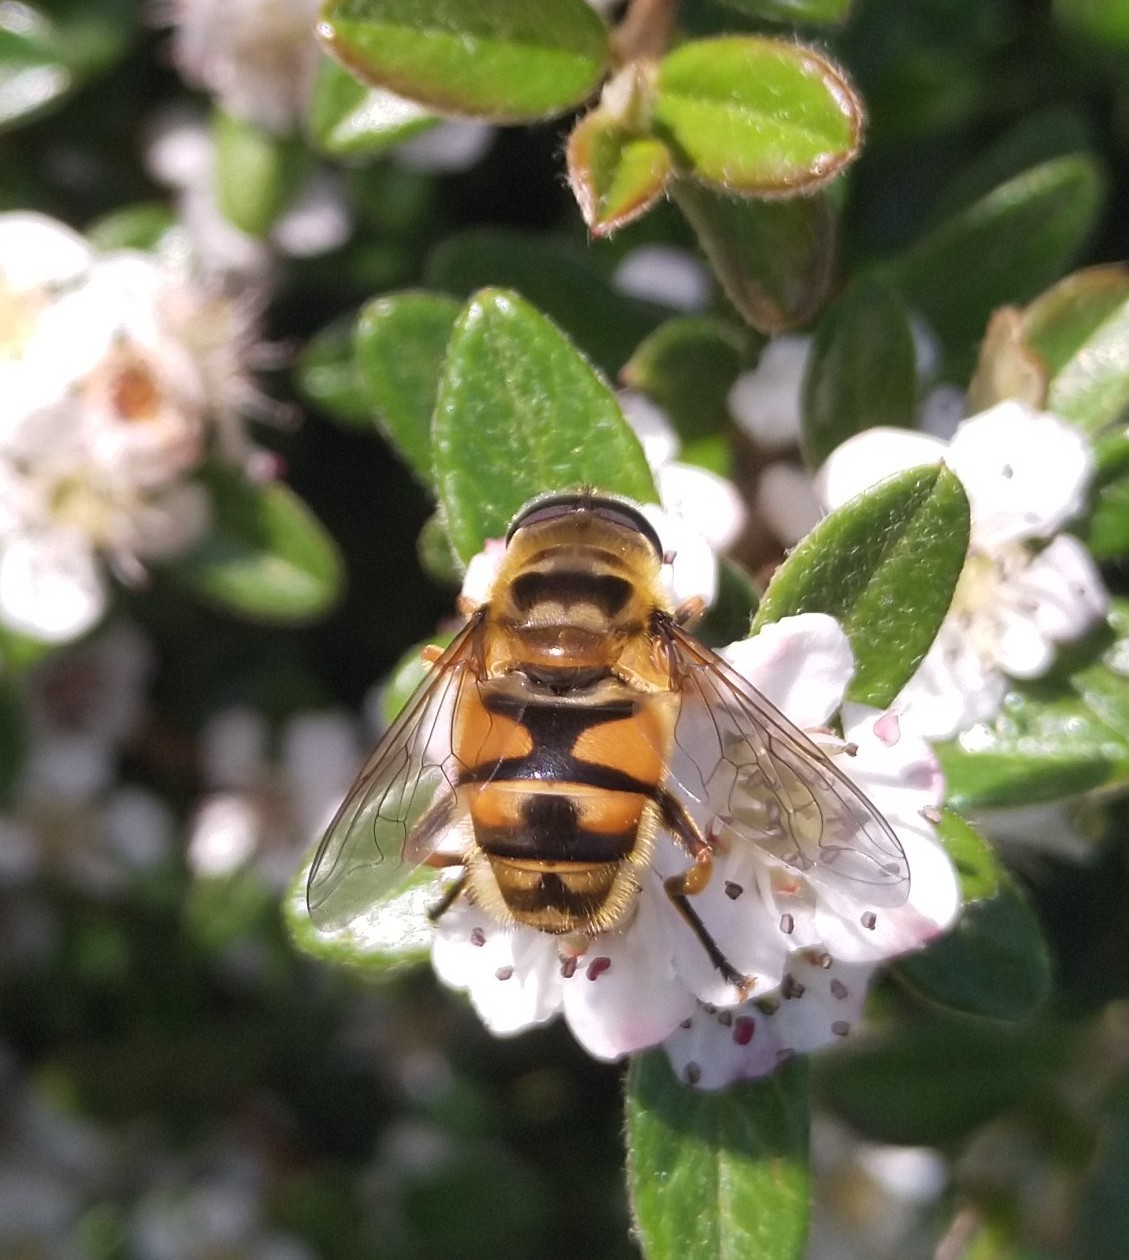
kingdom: Animalia
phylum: Arthropoda
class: Insecta
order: Diptera
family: Syrphidae
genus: Myathropa
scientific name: Myathropa florea
